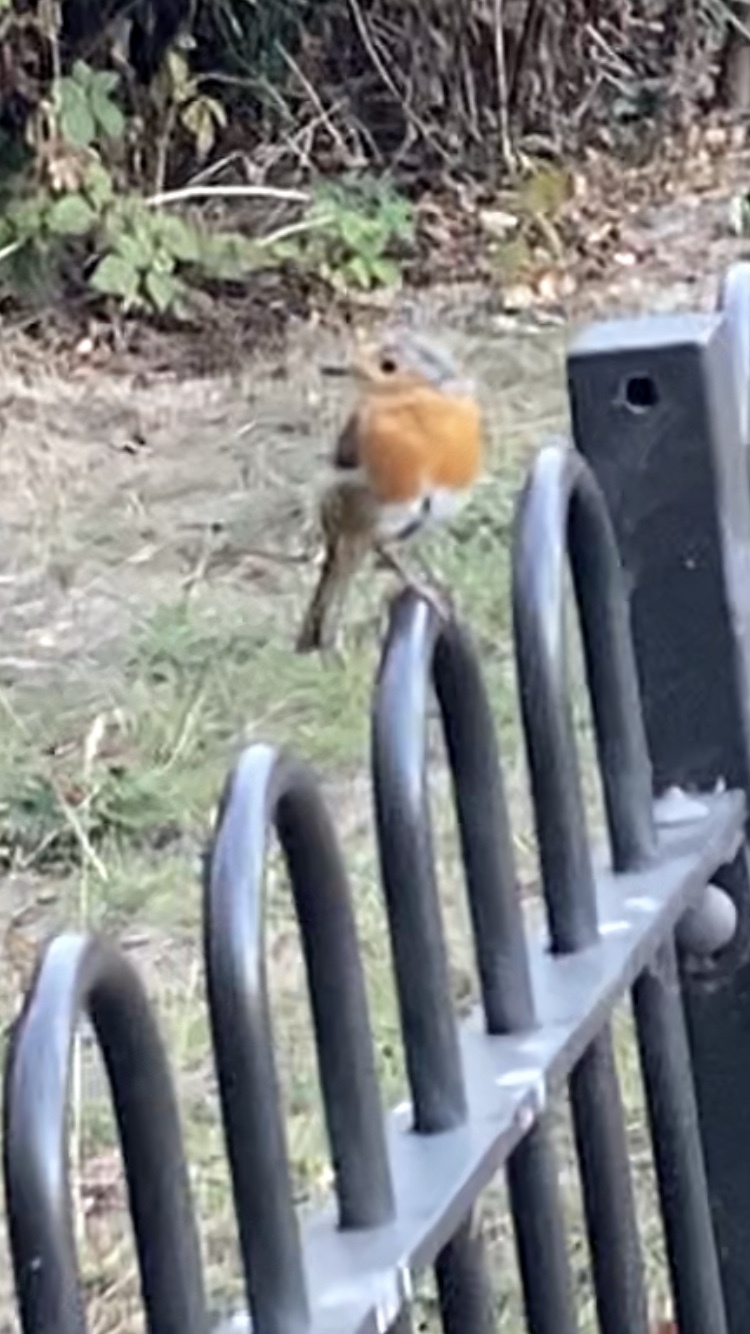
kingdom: Animalia
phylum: Chordata
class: Aves
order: Passeriformes
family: Muscicapidae
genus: Erithacus
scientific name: Erithacus rubecula
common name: European robin
